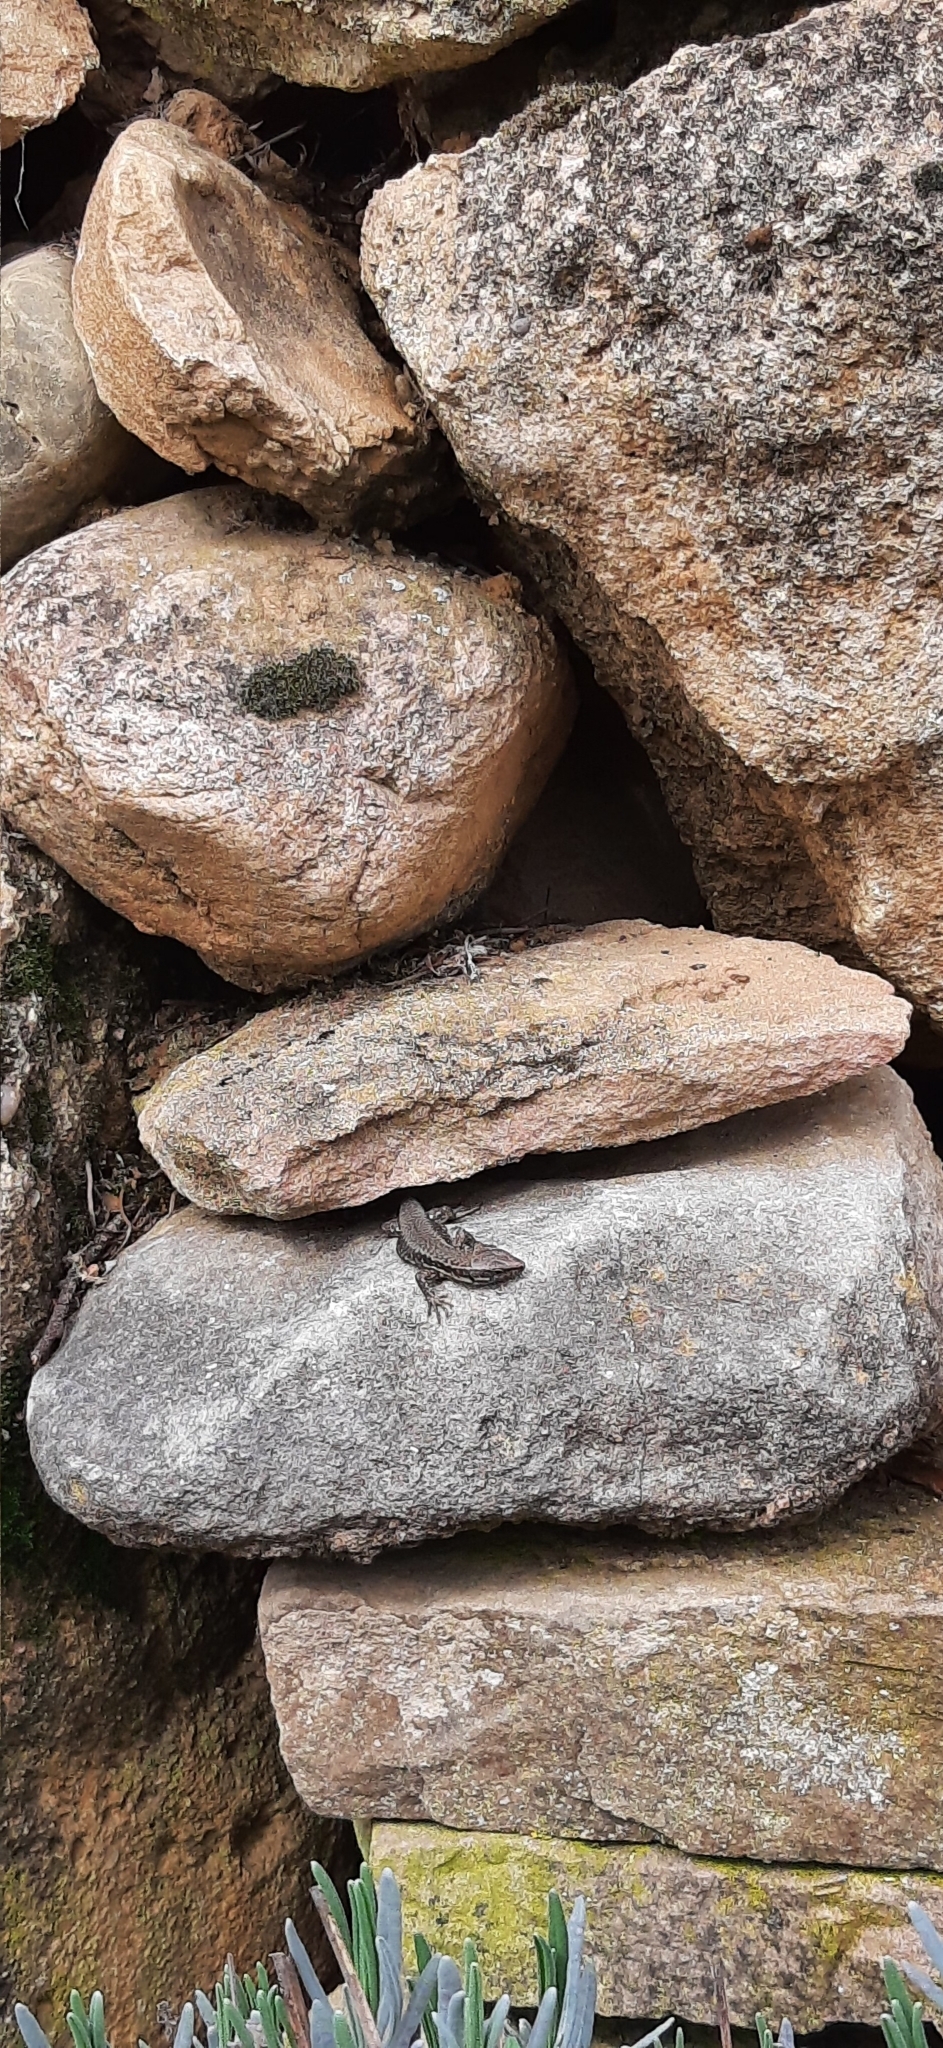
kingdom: Animalia
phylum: Chordata
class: Squamata
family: Lacertidae
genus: Podarcis
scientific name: Podarcis muralis
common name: Common wall lizard
